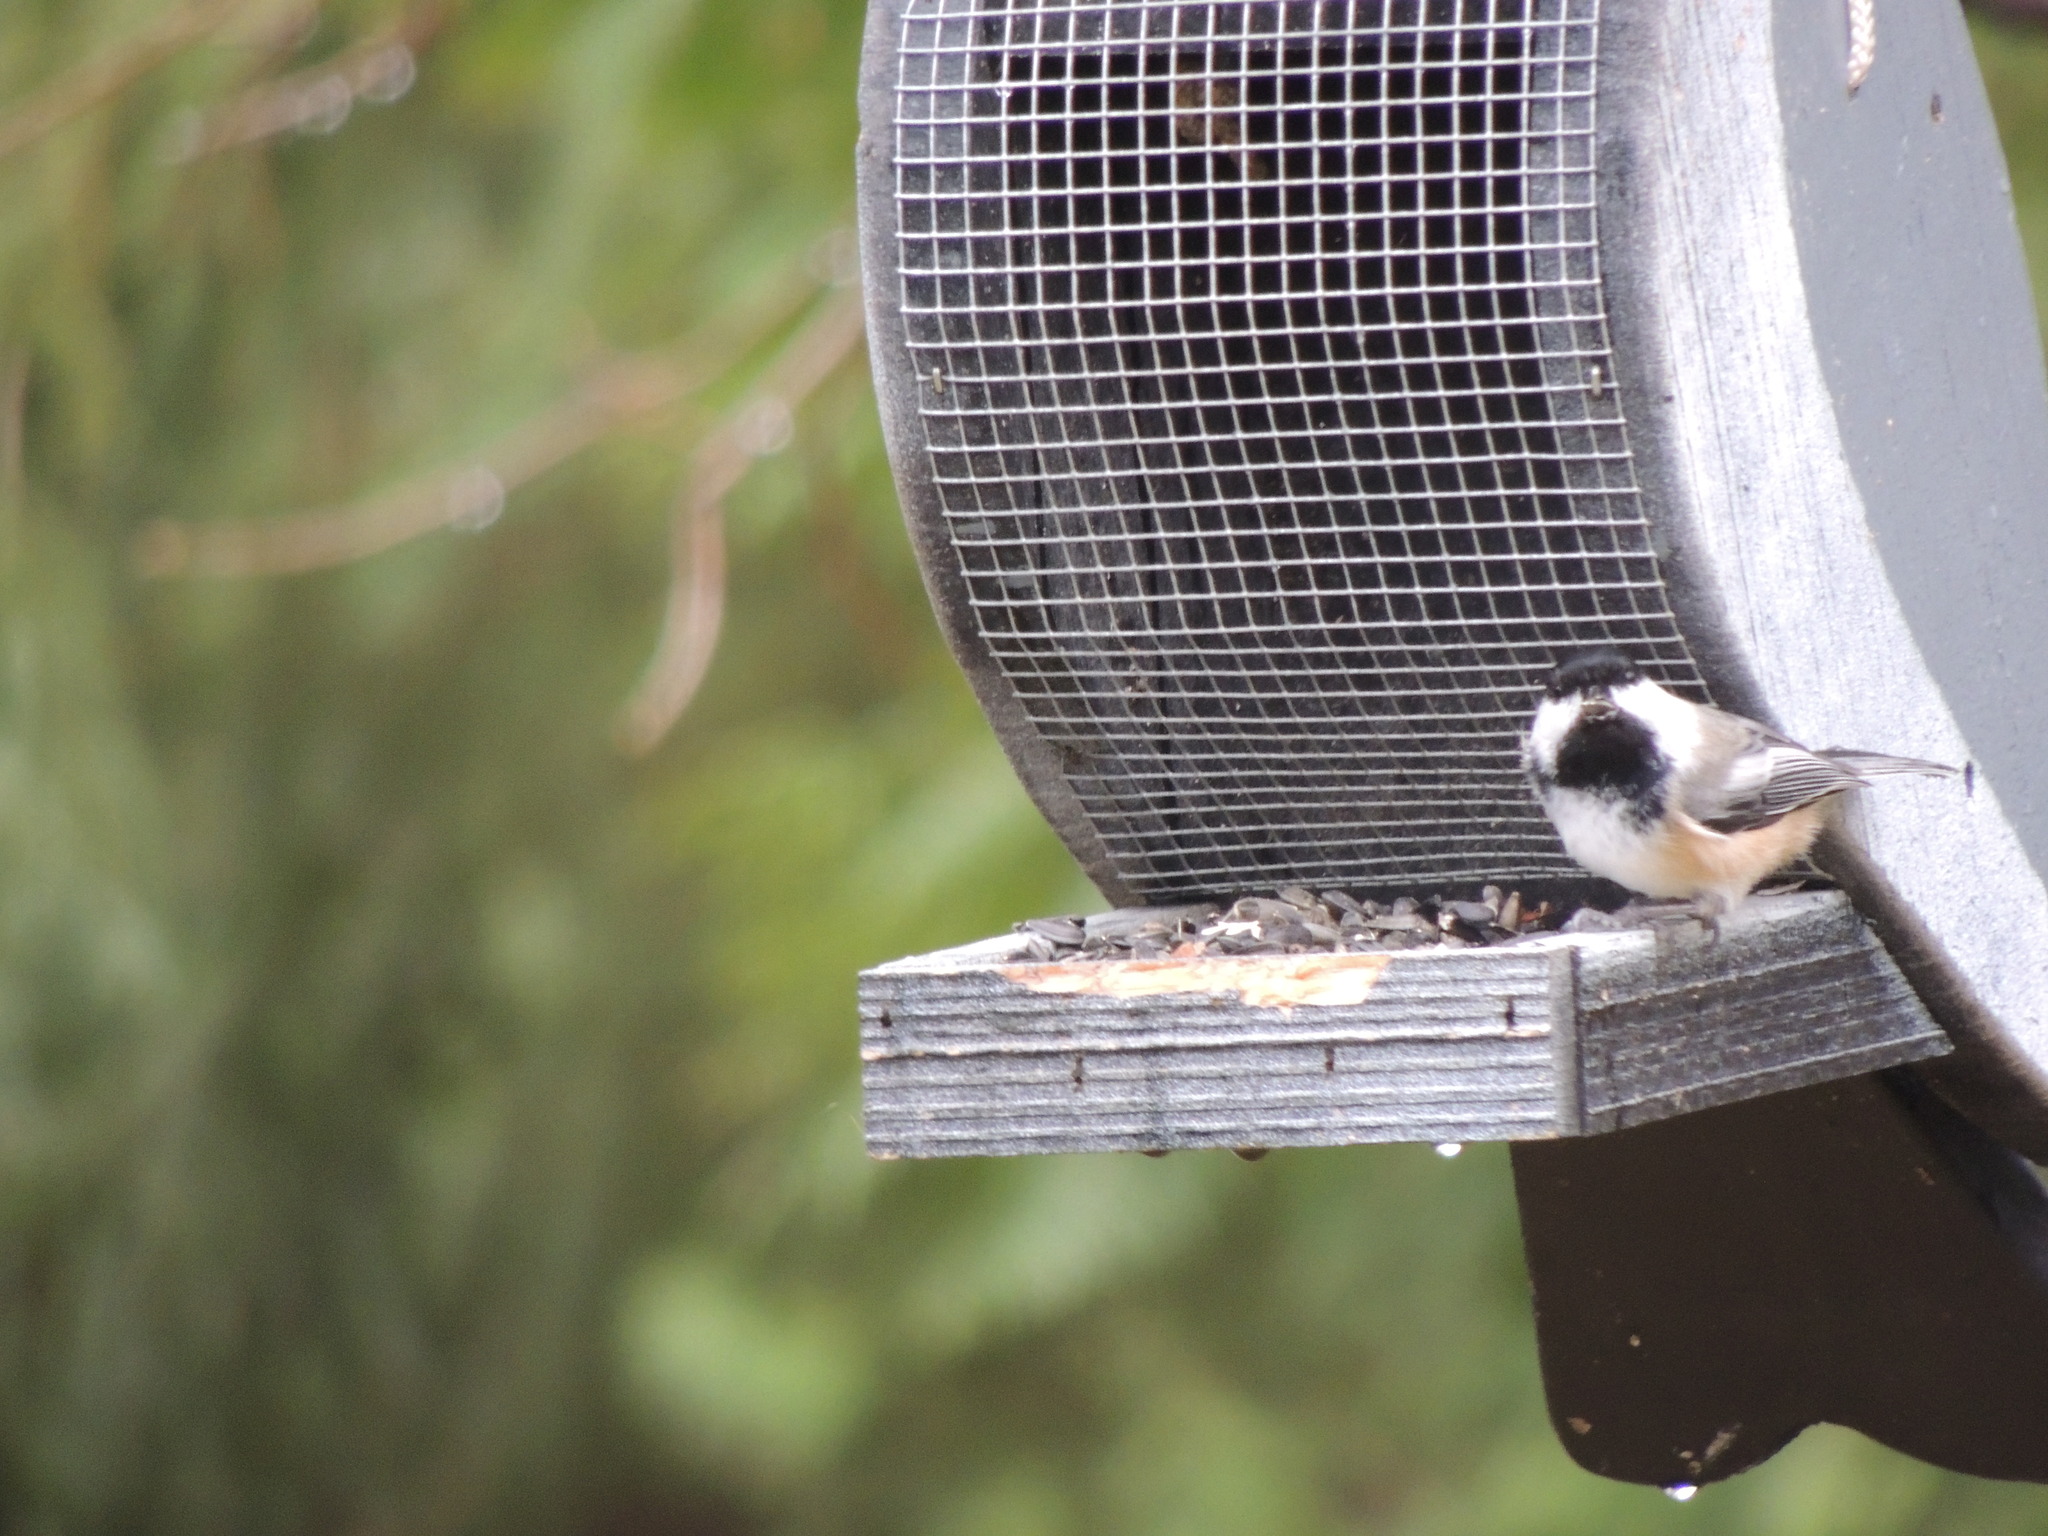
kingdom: Animalia
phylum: Chordata
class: Aves
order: Passeriformes
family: Paridae
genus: Poecile
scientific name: Poecile atricapillus
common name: Black-capped chickadee
